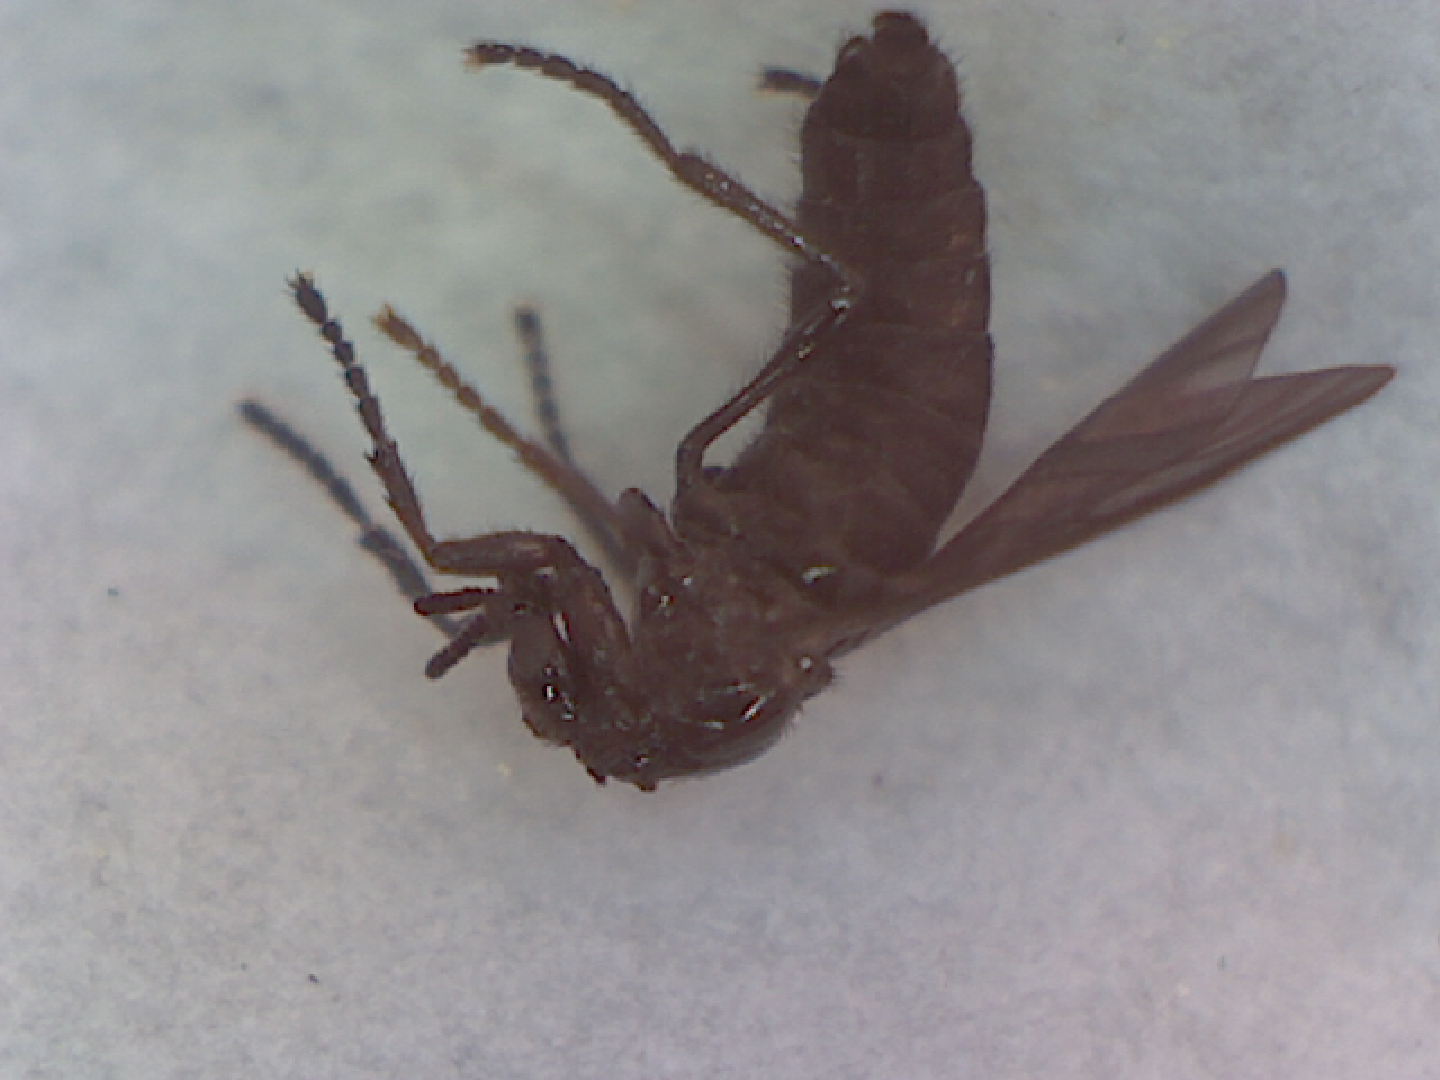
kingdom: Animalia
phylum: Arthropoda
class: Insecta
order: Diptera
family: Bibionidae
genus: Dilophus
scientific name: Dilophus orbatus
